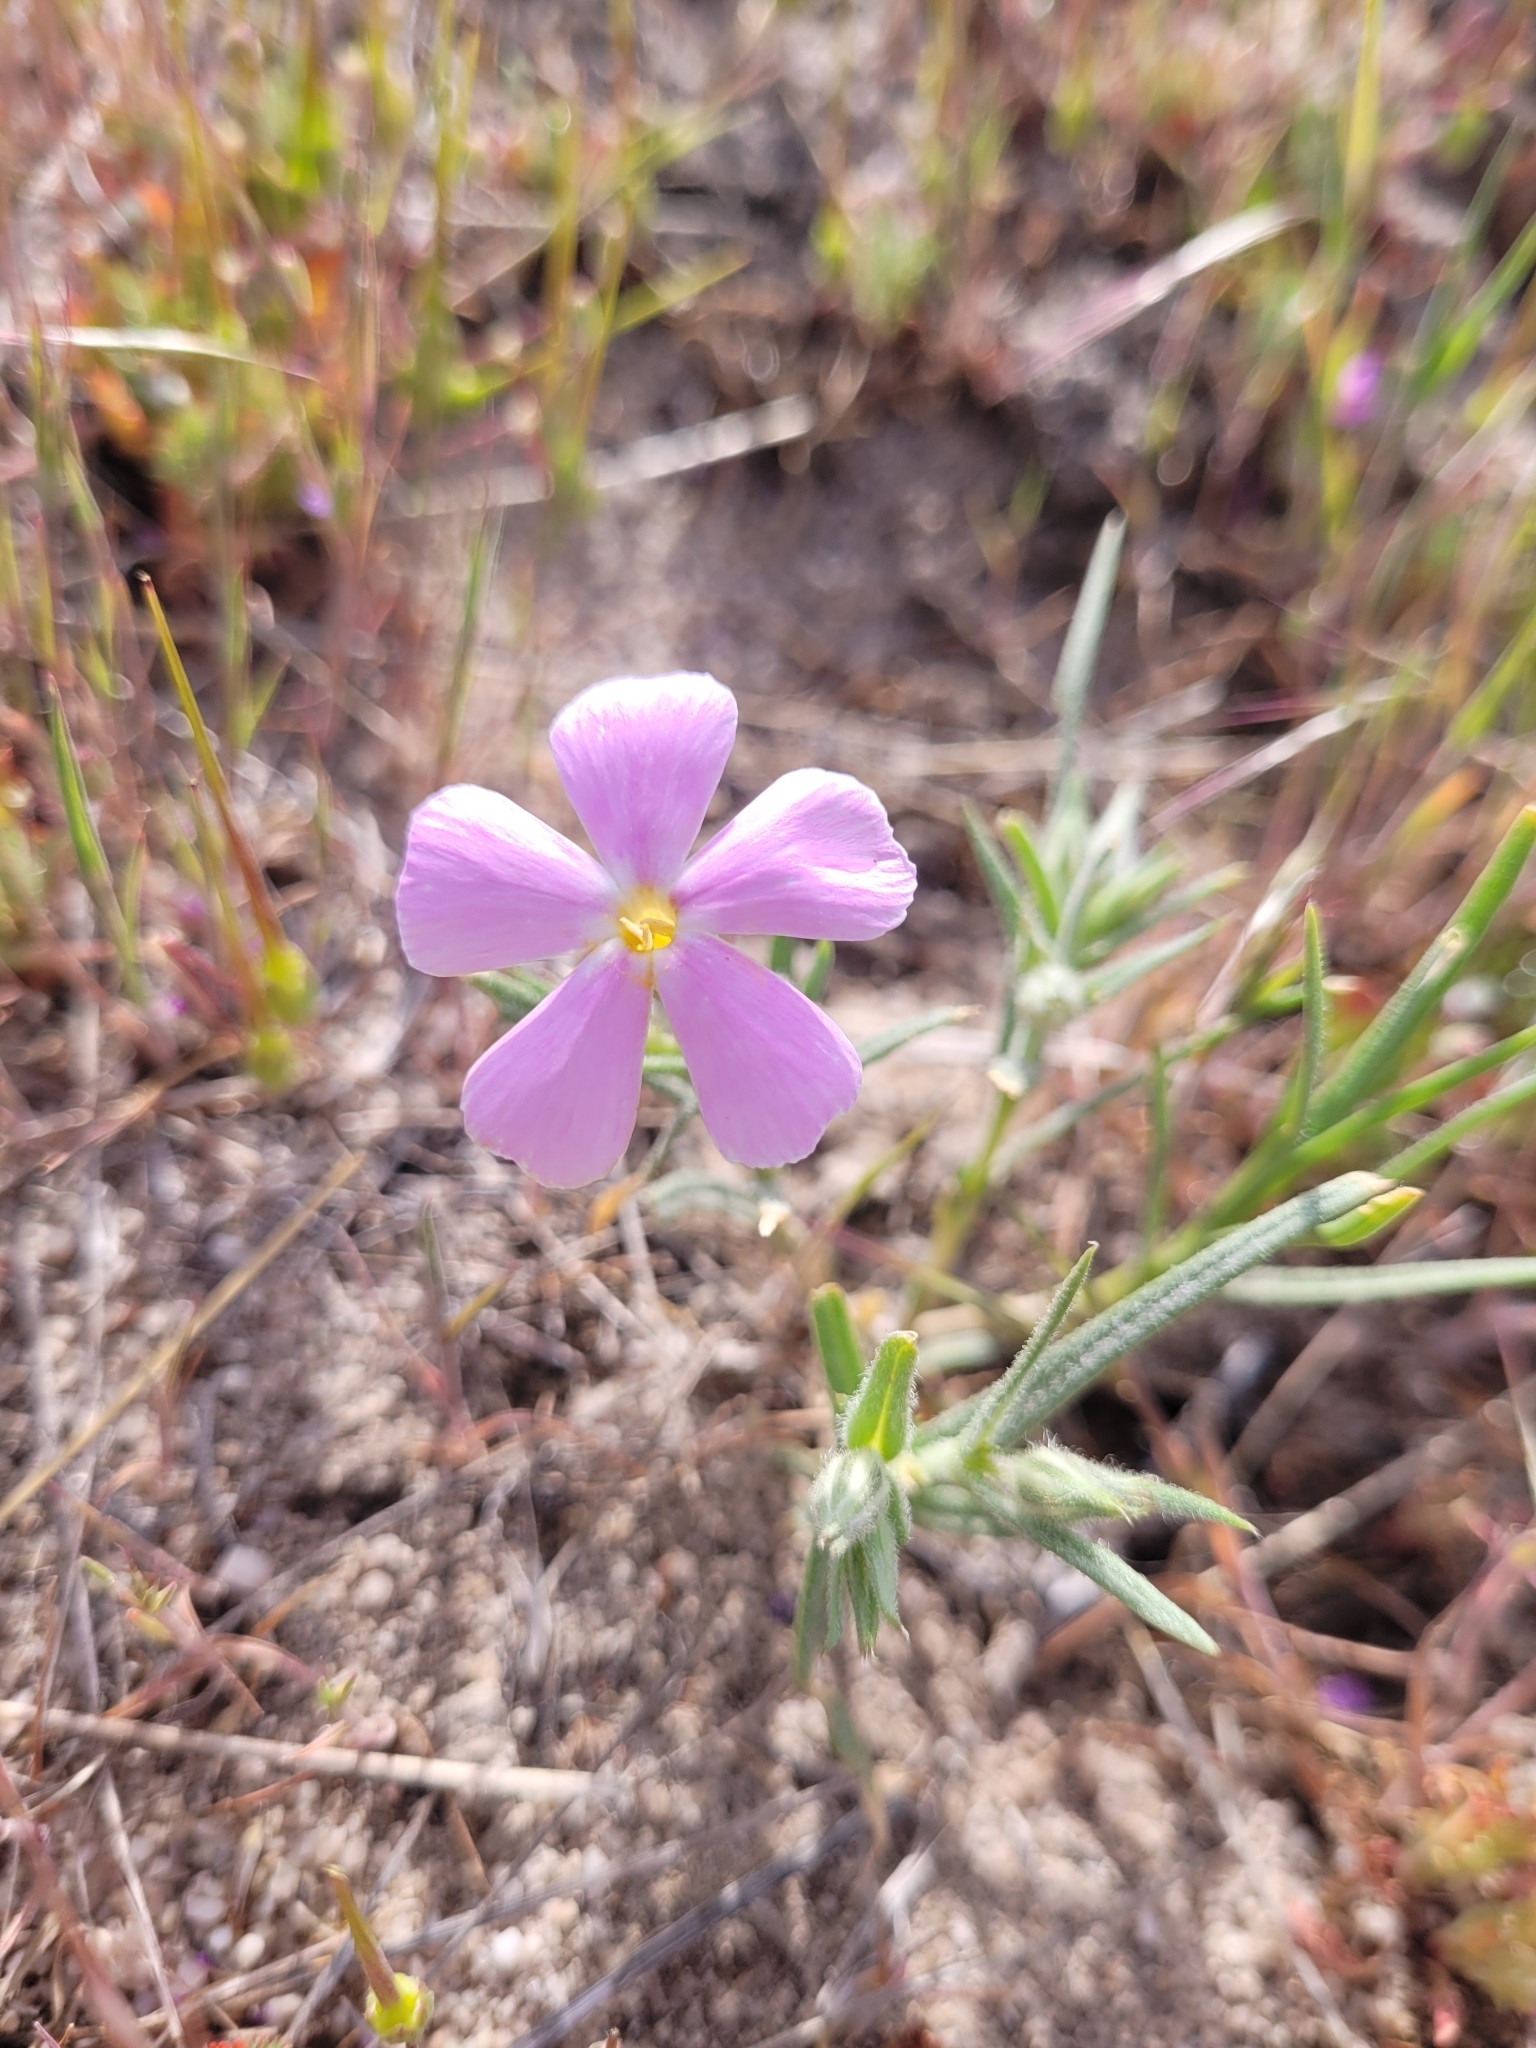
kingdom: Plantae
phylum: Tracheophyta
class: Magnoliopsida
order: Ericales
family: Polemoniaceae
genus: Phlox
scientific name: Phlox longifolia
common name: Longleaf phlox
